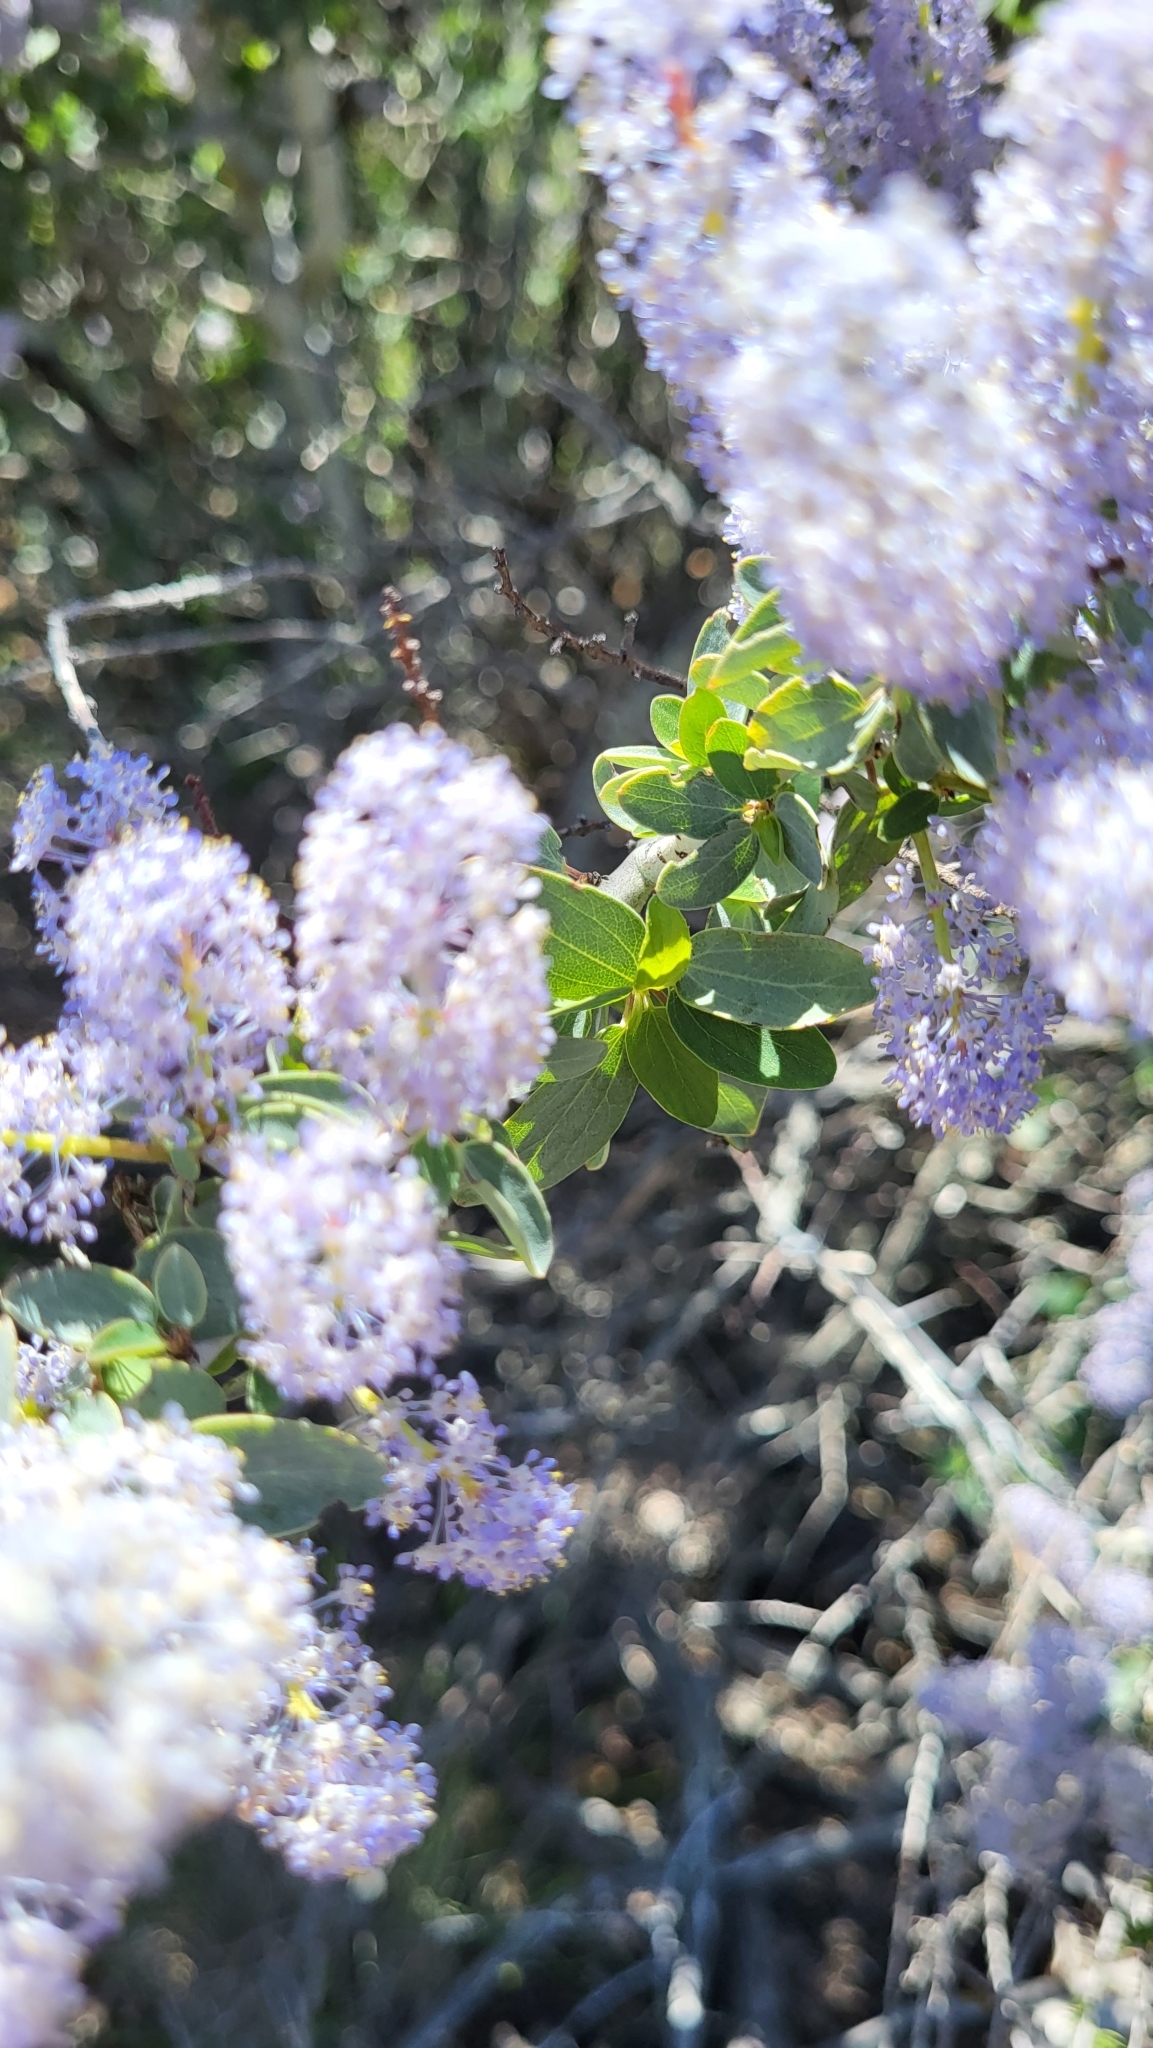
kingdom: Plantae
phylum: Tracheophyta
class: Magnoliopsida
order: Rosales
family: Rhamnaceae
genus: Ceanothus
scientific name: Ceanothus leucodermis
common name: Chaparral whitethorn
